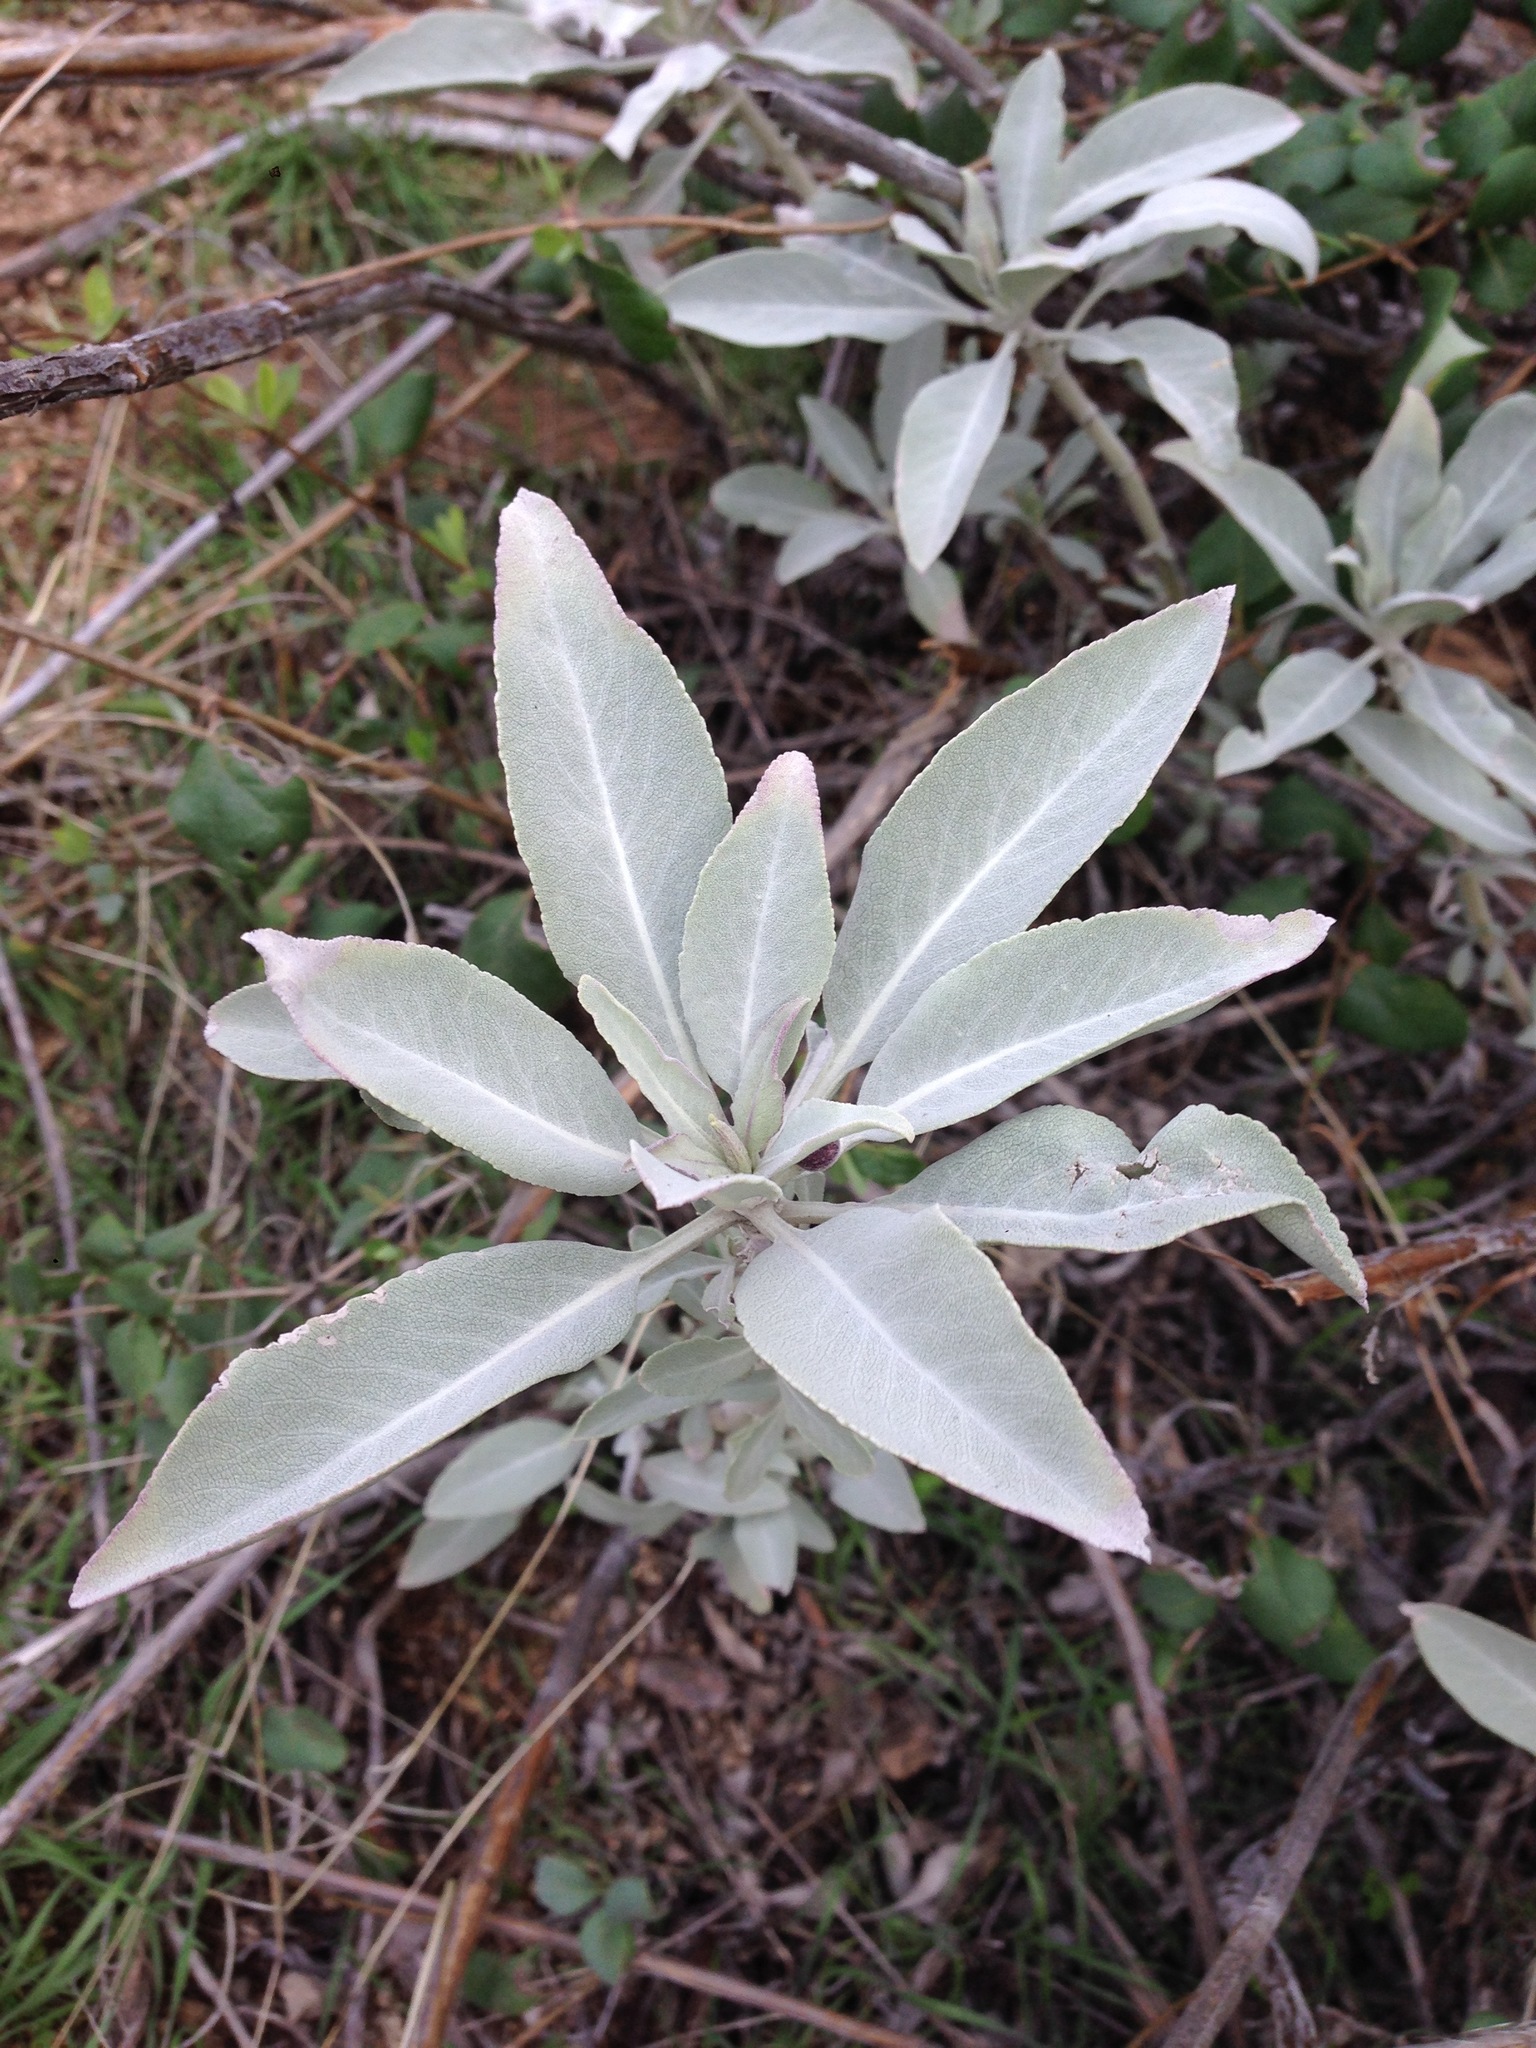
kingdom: Plantae
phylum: Tracheophyta
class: Magnoliopsida
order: Lamiales
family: Lamiaceae
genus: Salvia
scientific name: Salvia apiana
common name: White sage
